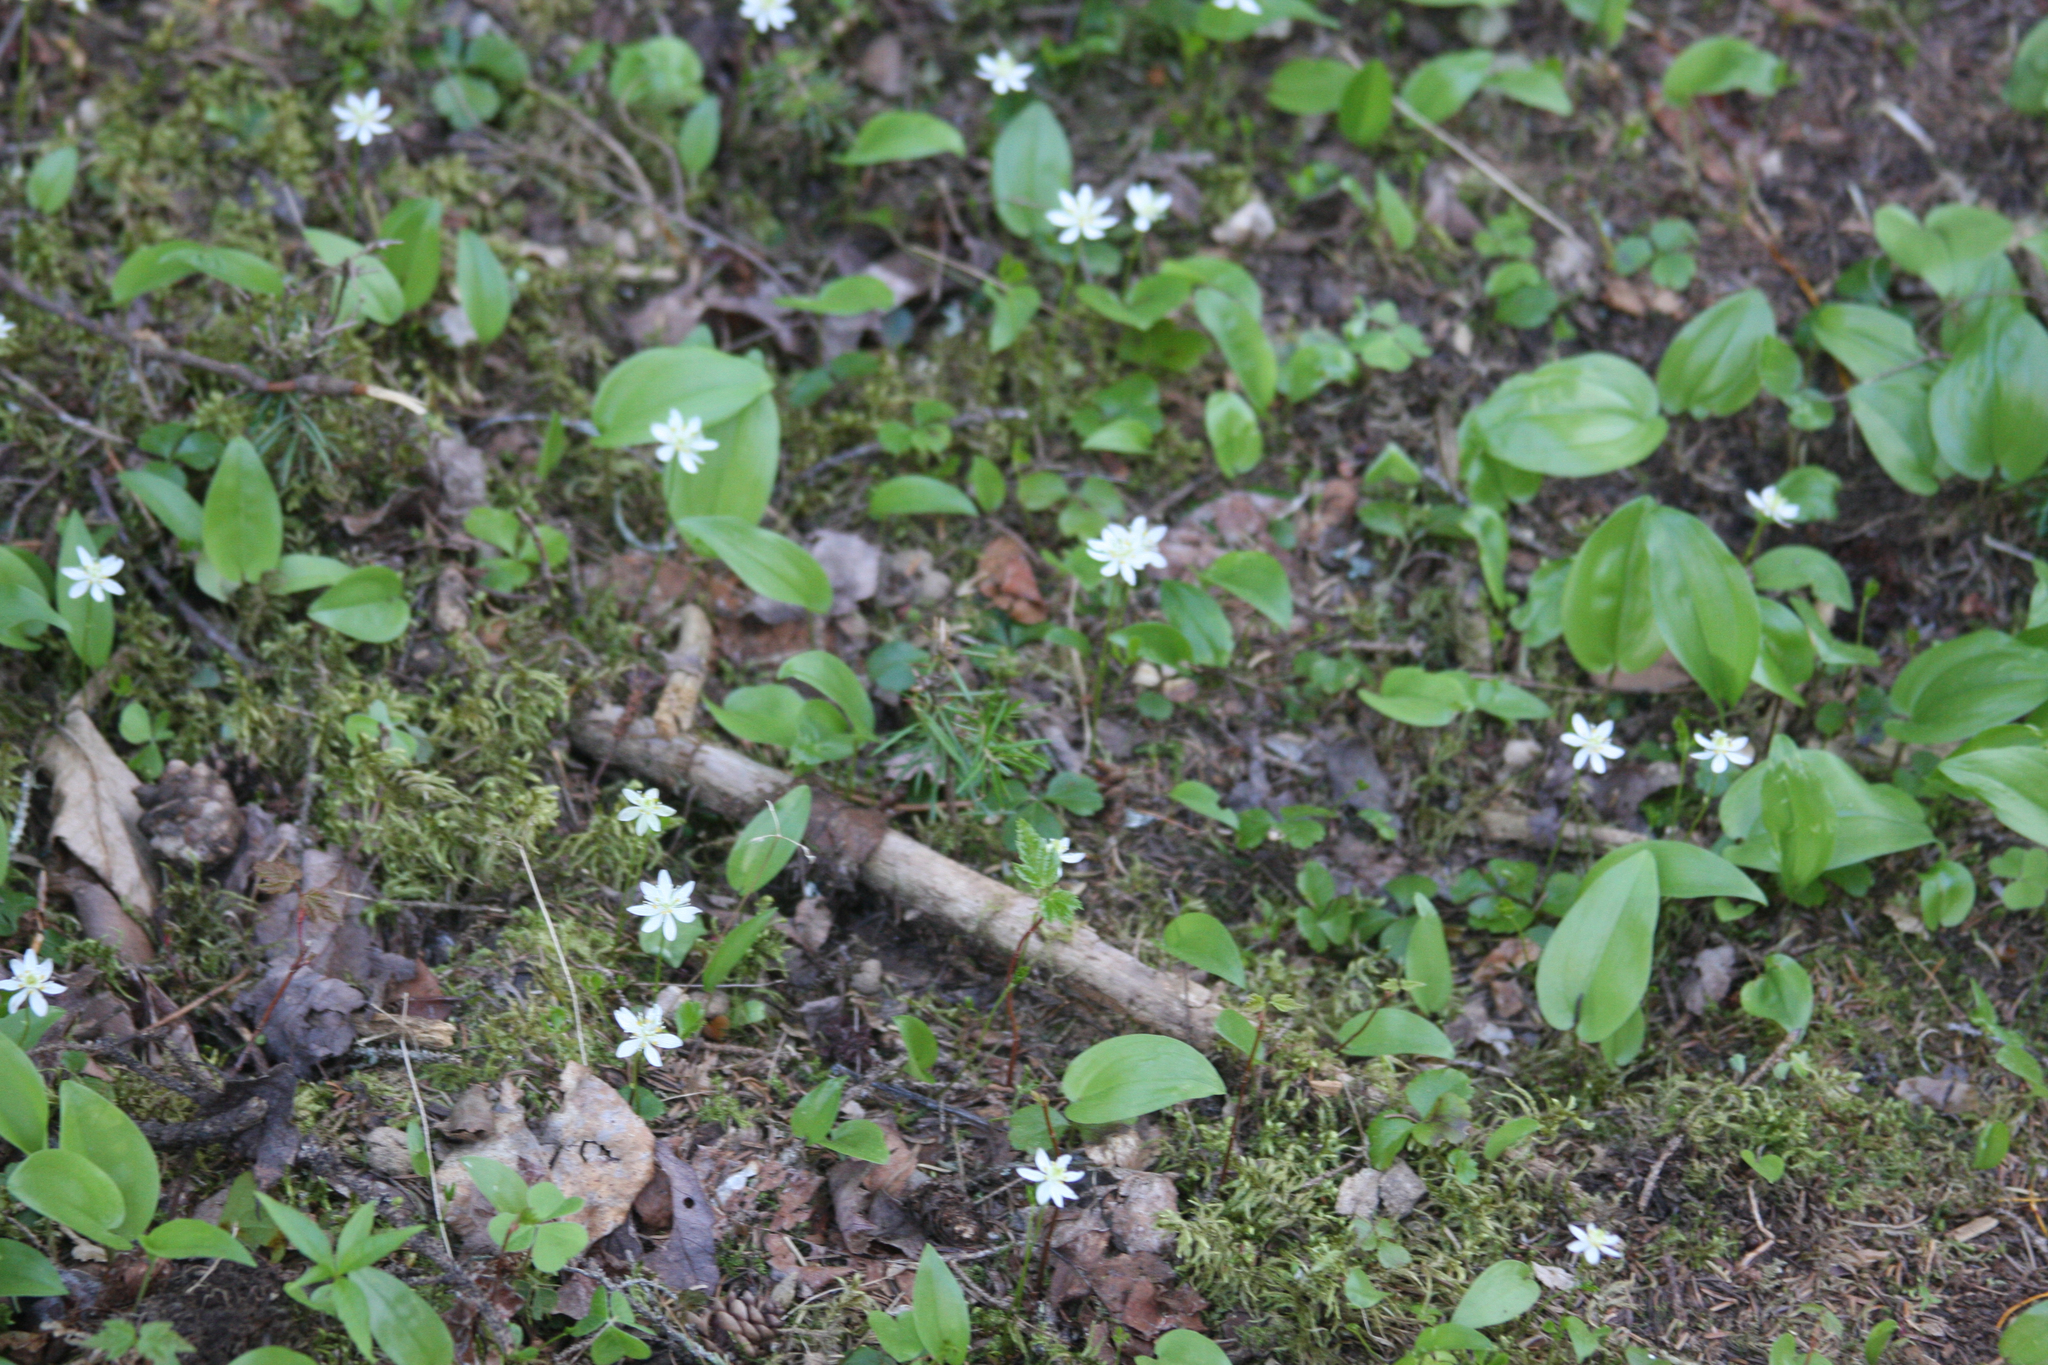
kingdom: Plantae
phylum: Tracheophyta
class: Liliopsida
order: Asparagales
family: Asparagaceae
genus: Maianthemum
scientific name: Maianthemum canadense
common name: False lily-of-the-valley
